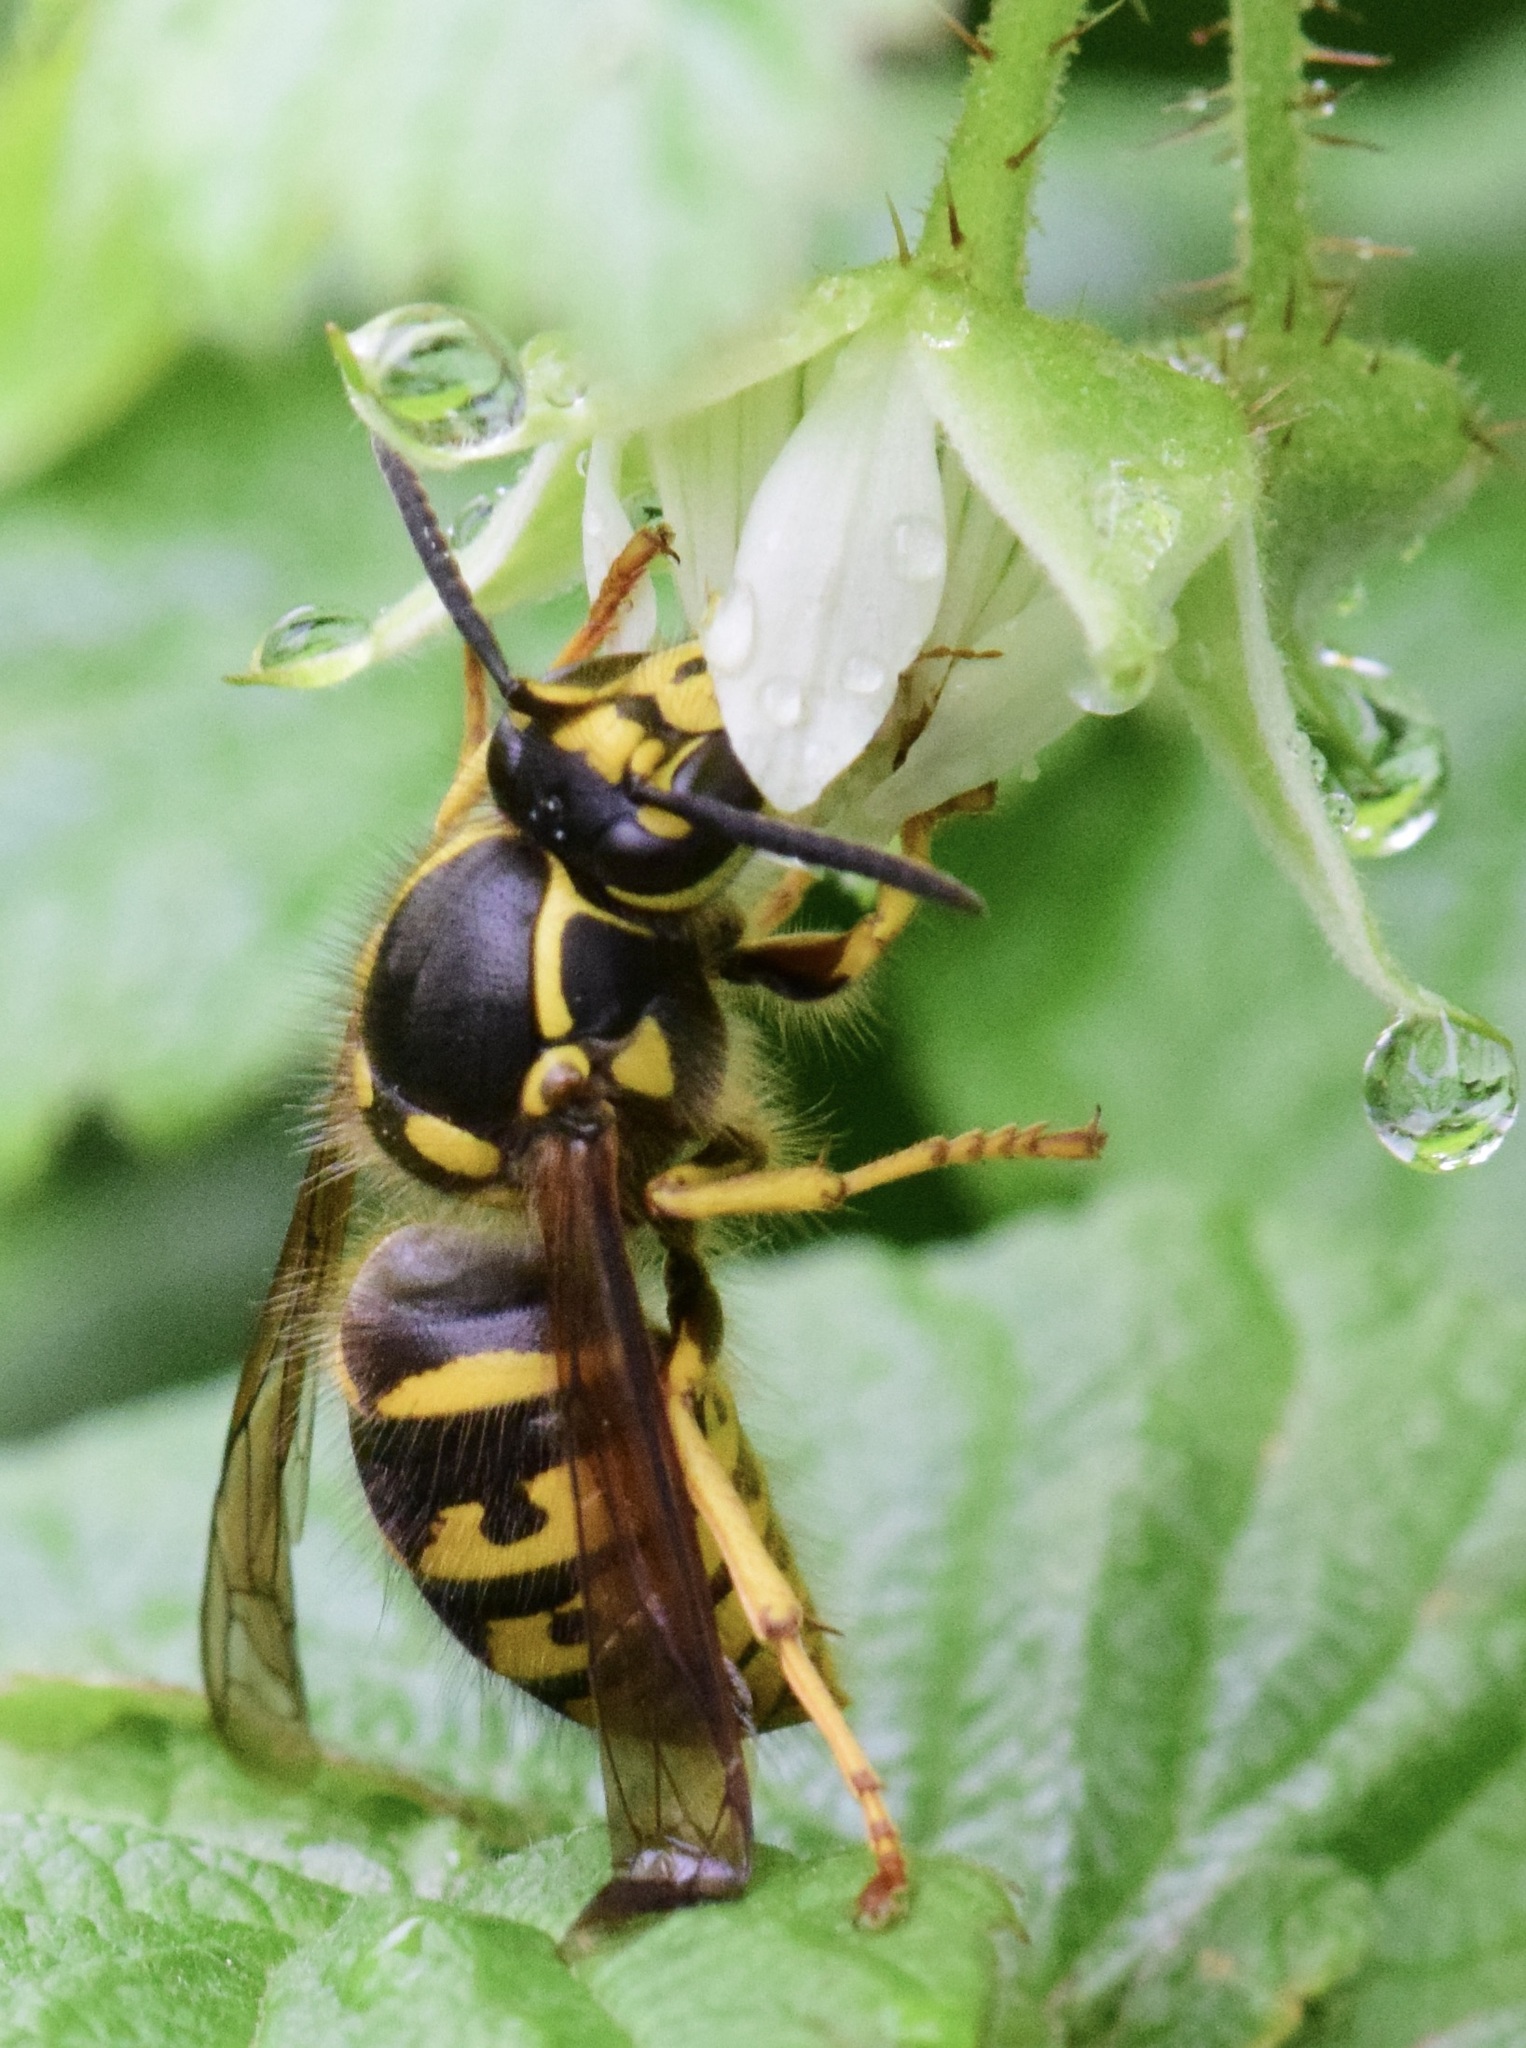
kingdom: Animalia
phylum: Arthropoda
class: Insecta
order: Hymenoptera
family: Vespidae
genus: Dolichovespula
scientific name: Dolichovespula arenaria
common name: Aerial yellowjacket
